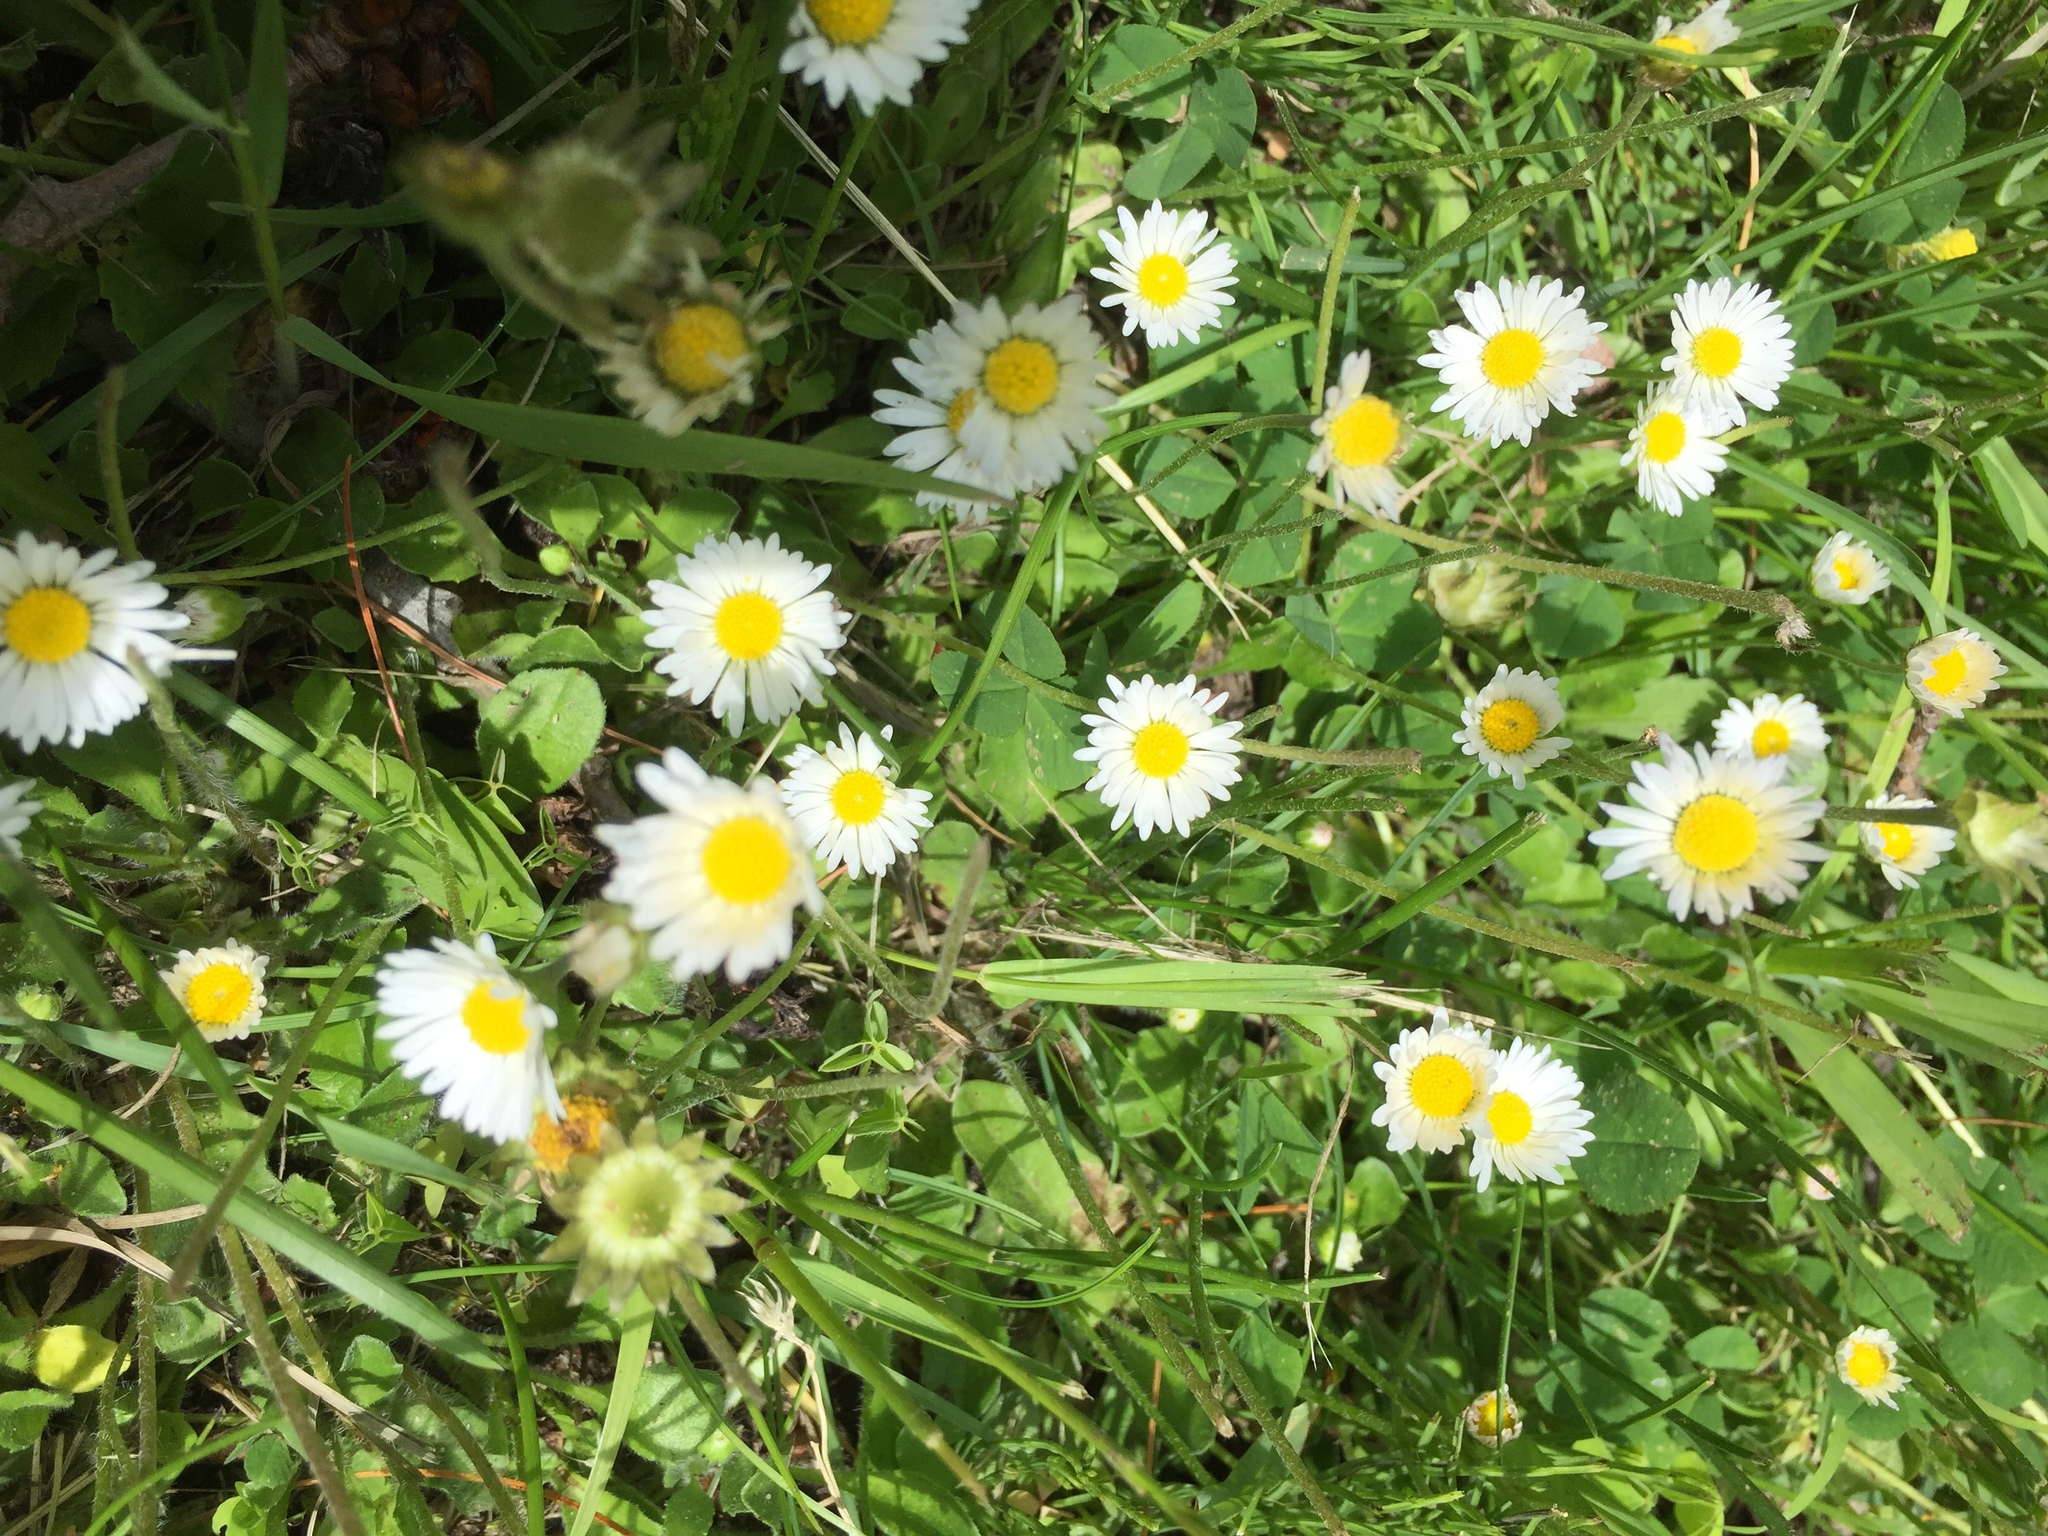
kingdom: Plantae
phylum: Tracheophyta
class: Magnoliopsida
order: Asterales
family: Asteraceae
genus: Bellis
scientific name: Bellis perennis
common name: Lawndaisy
